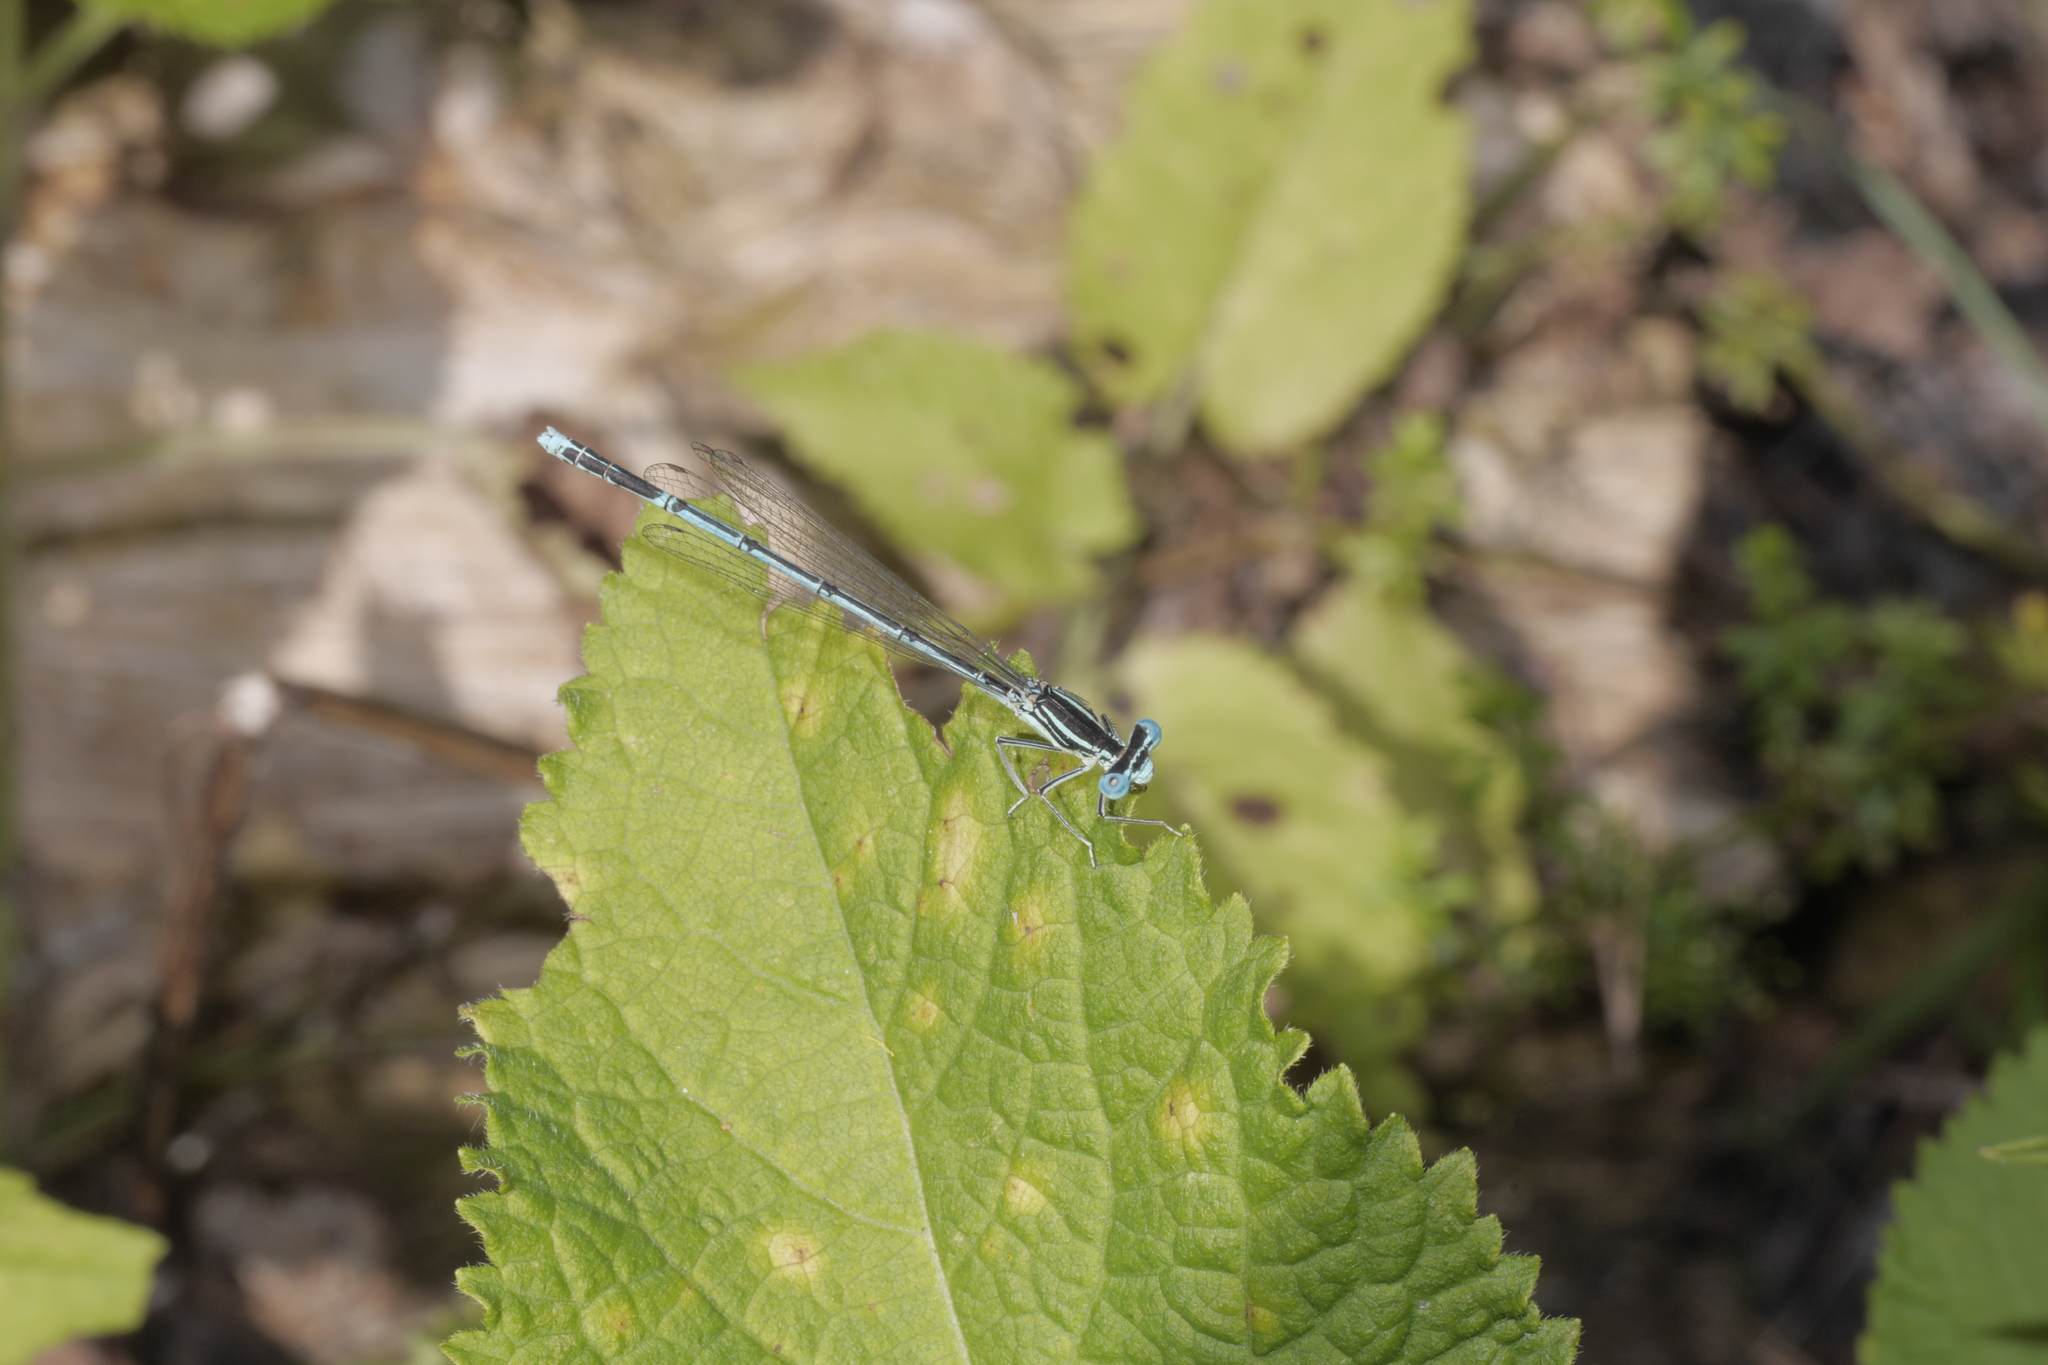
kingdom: Animalia
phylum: Arthropoda
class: Insecta
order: Odonata
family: Platycnemididae
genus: Platycnemis
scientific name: Platycnemis pennipes
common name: White-legged damselfly
